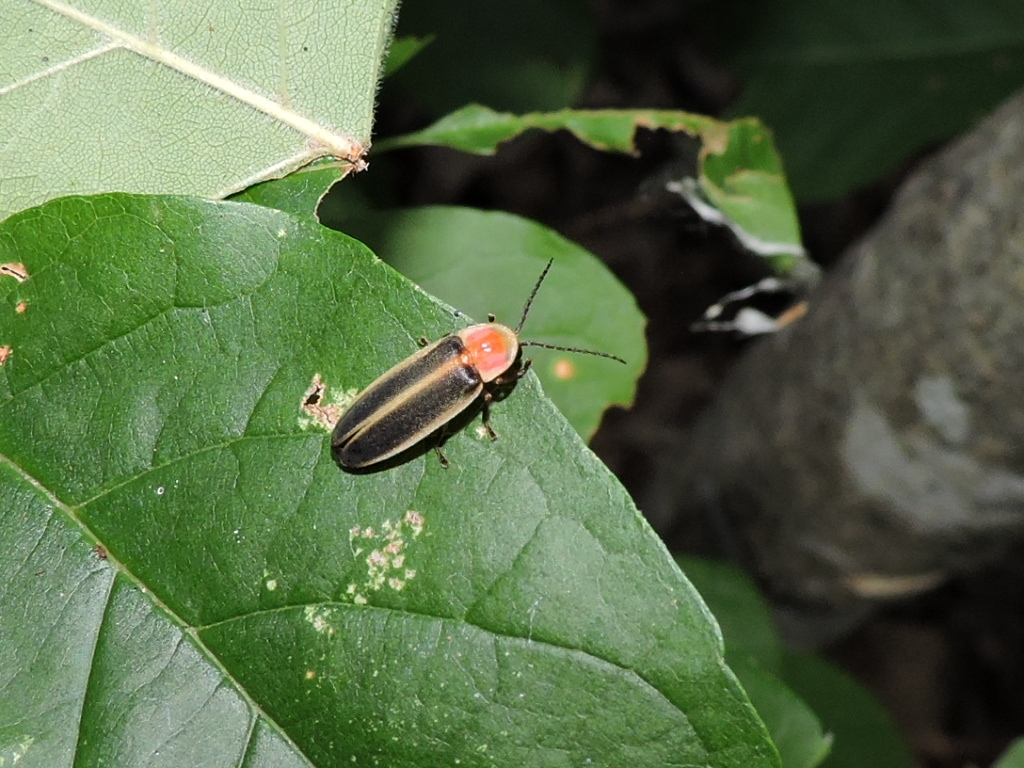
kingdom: Animalia
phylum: Arthropoda
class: Insecta
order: Coleoptera
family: Lampyridae
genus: Photinus
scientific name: Photinus dimissus
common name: Two-step flasher firefly
